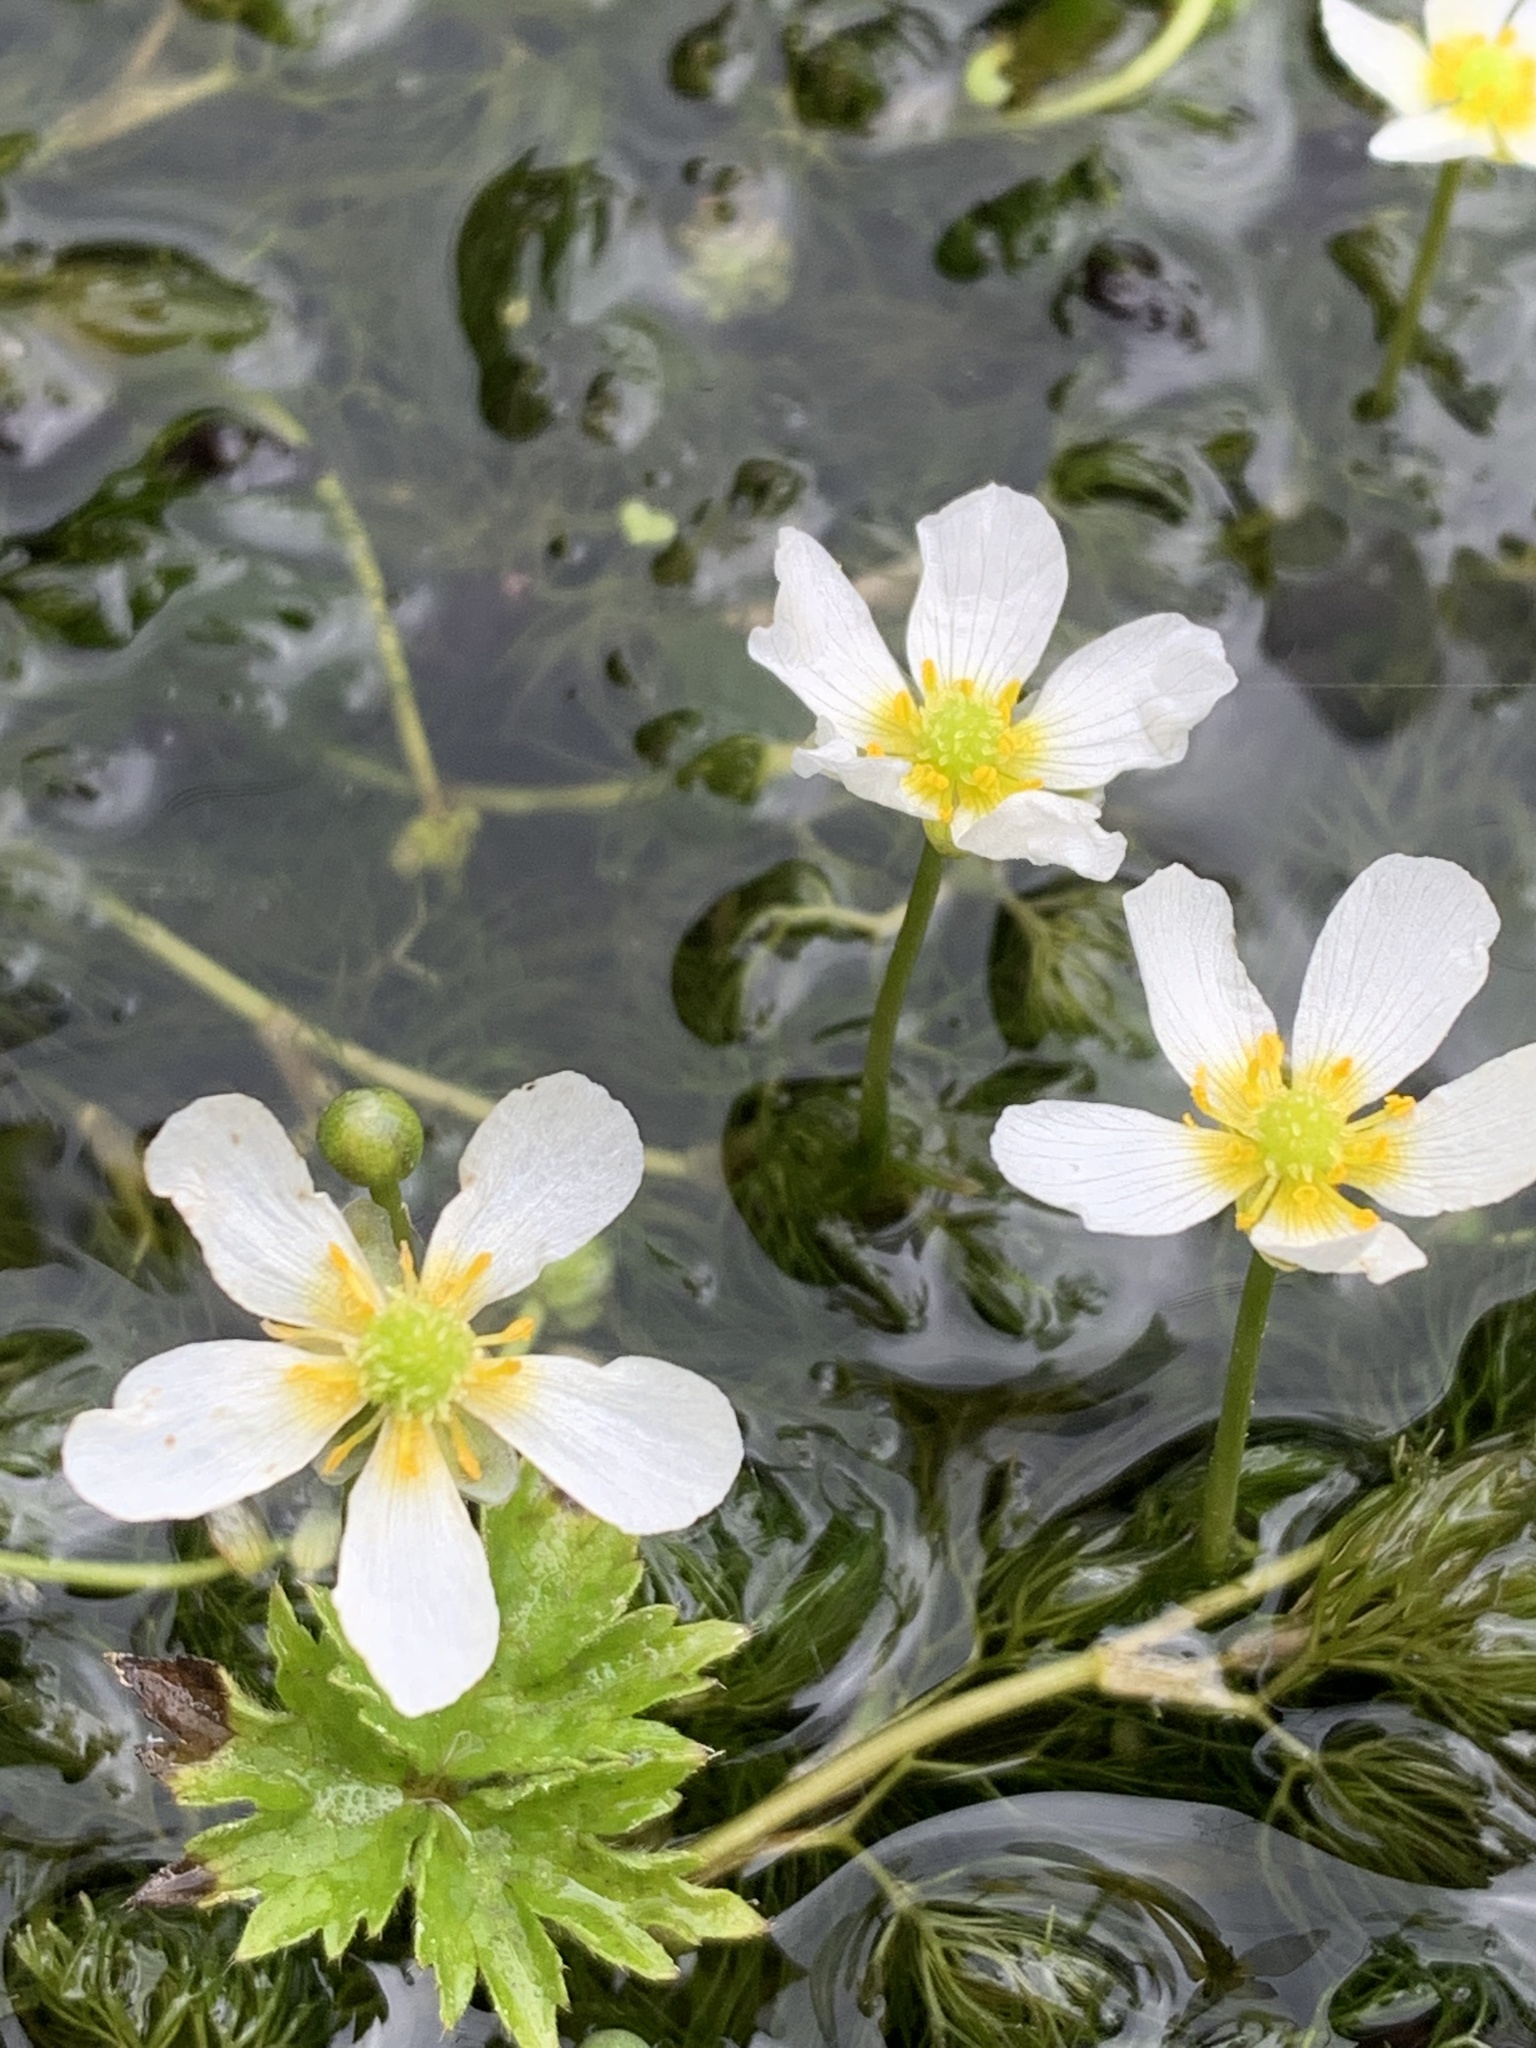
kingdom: Plantae
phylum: Tracheophyta
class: Magnoliopsida
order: Ranunculales
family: Ranunculaceae
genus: Ranunculus
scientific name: Ranunculus trichophyllus
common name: Thread-leaved water-crowfoot
